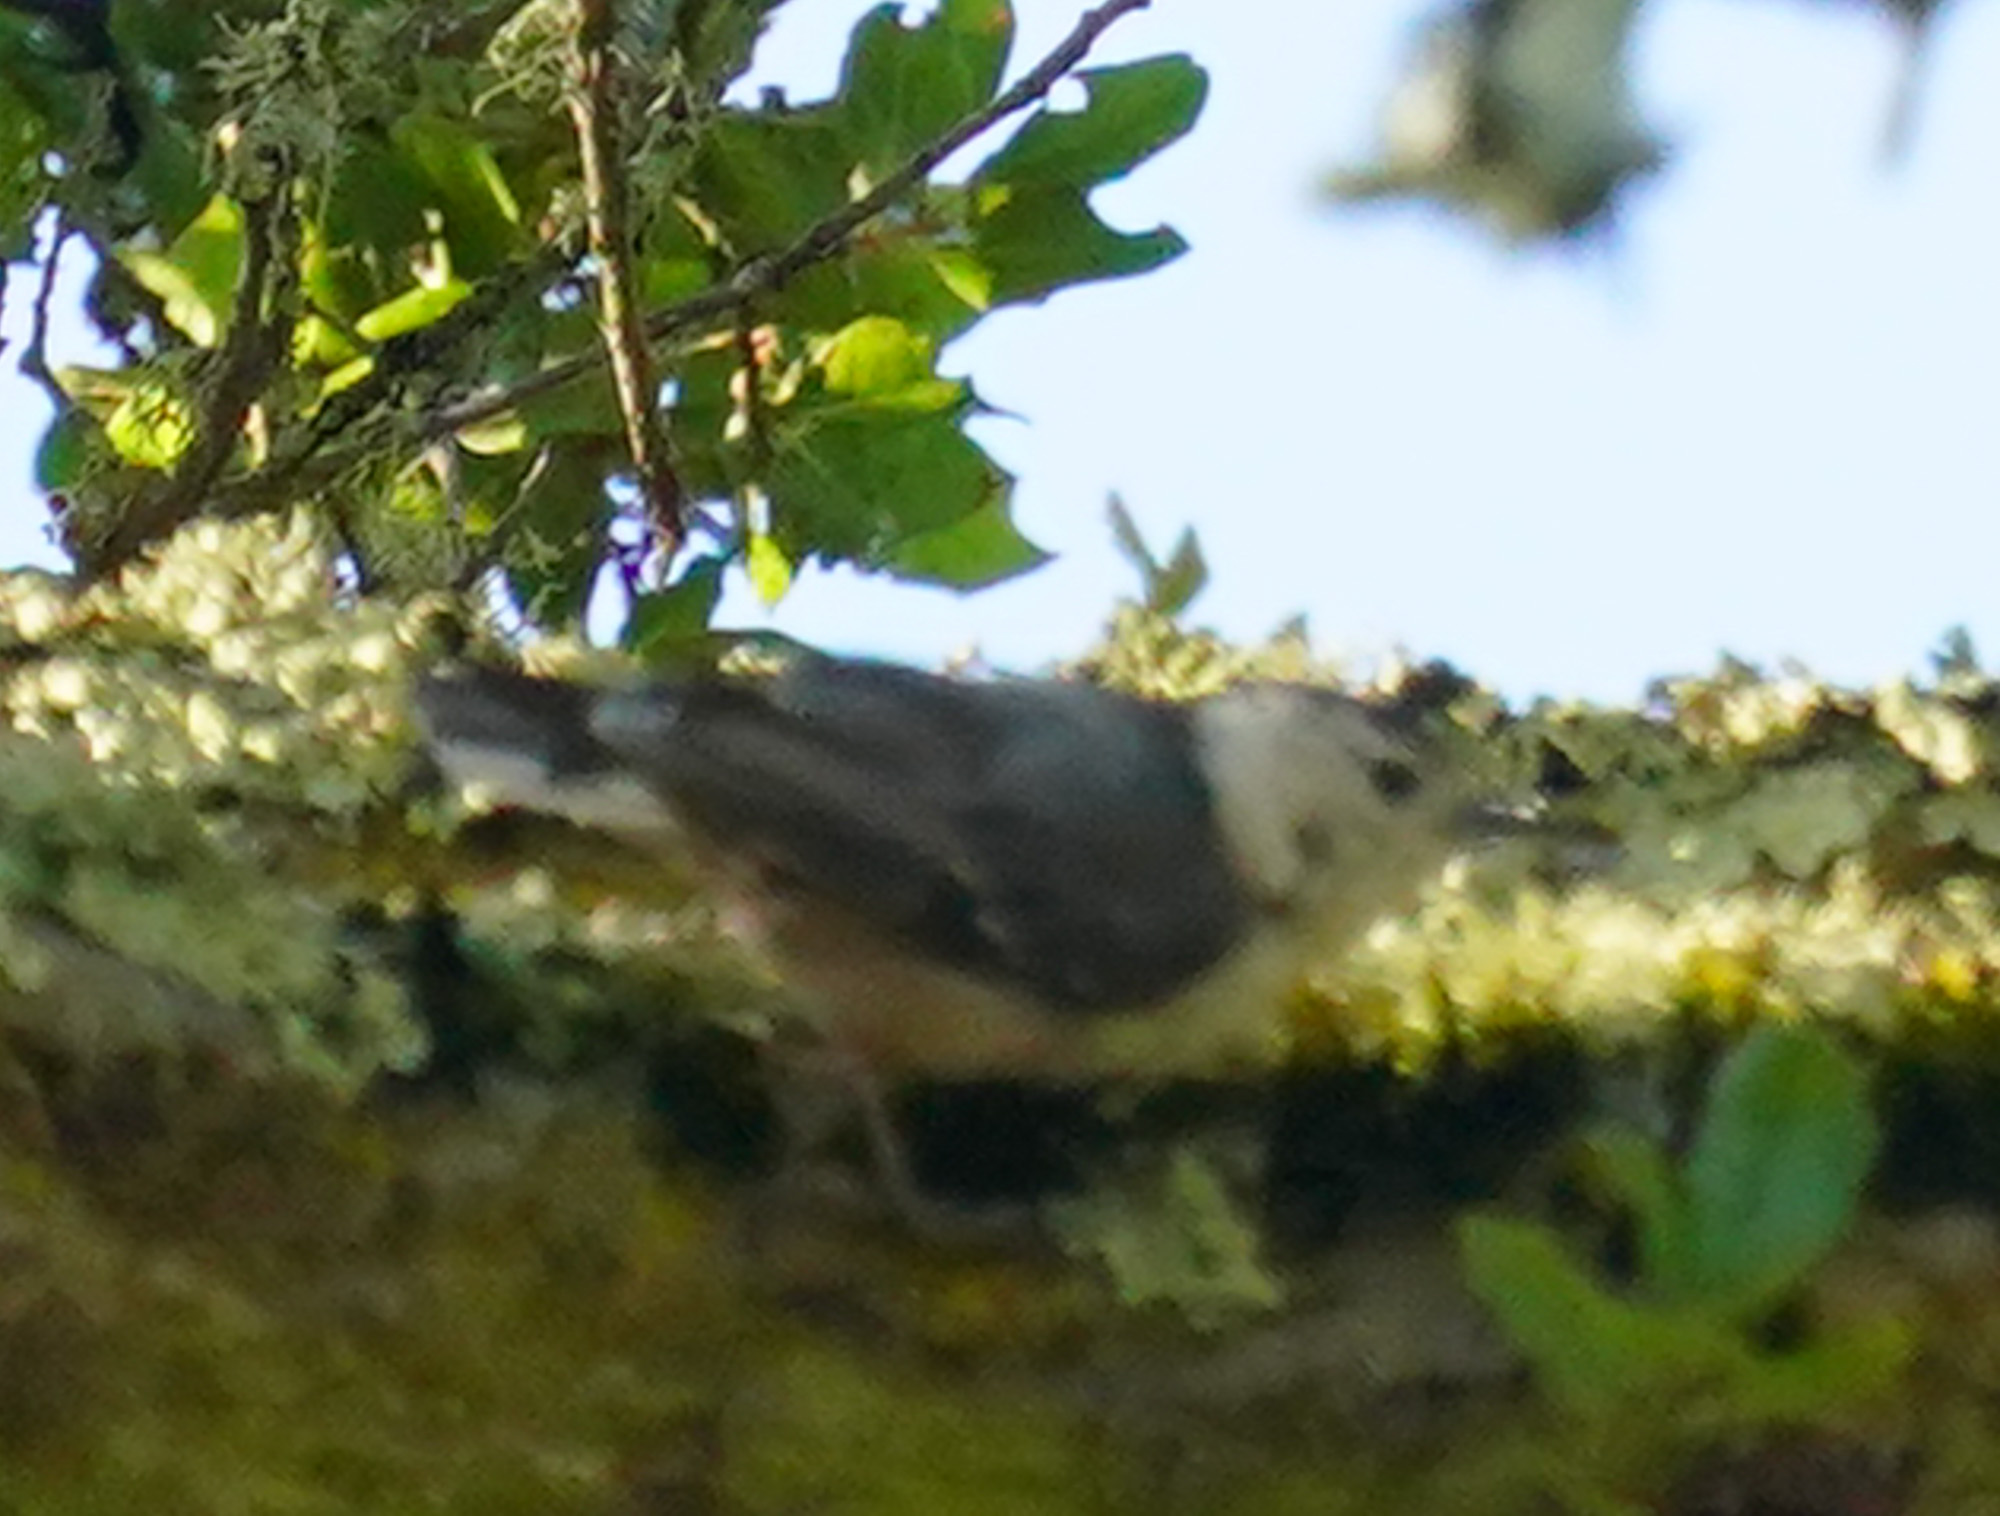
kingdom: Animalia
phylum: Chordata
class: Aves
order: Passeriformes
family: Sittidae
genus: Sitta
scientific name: Sitta carolinensis
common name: White-breasted nuthatch
